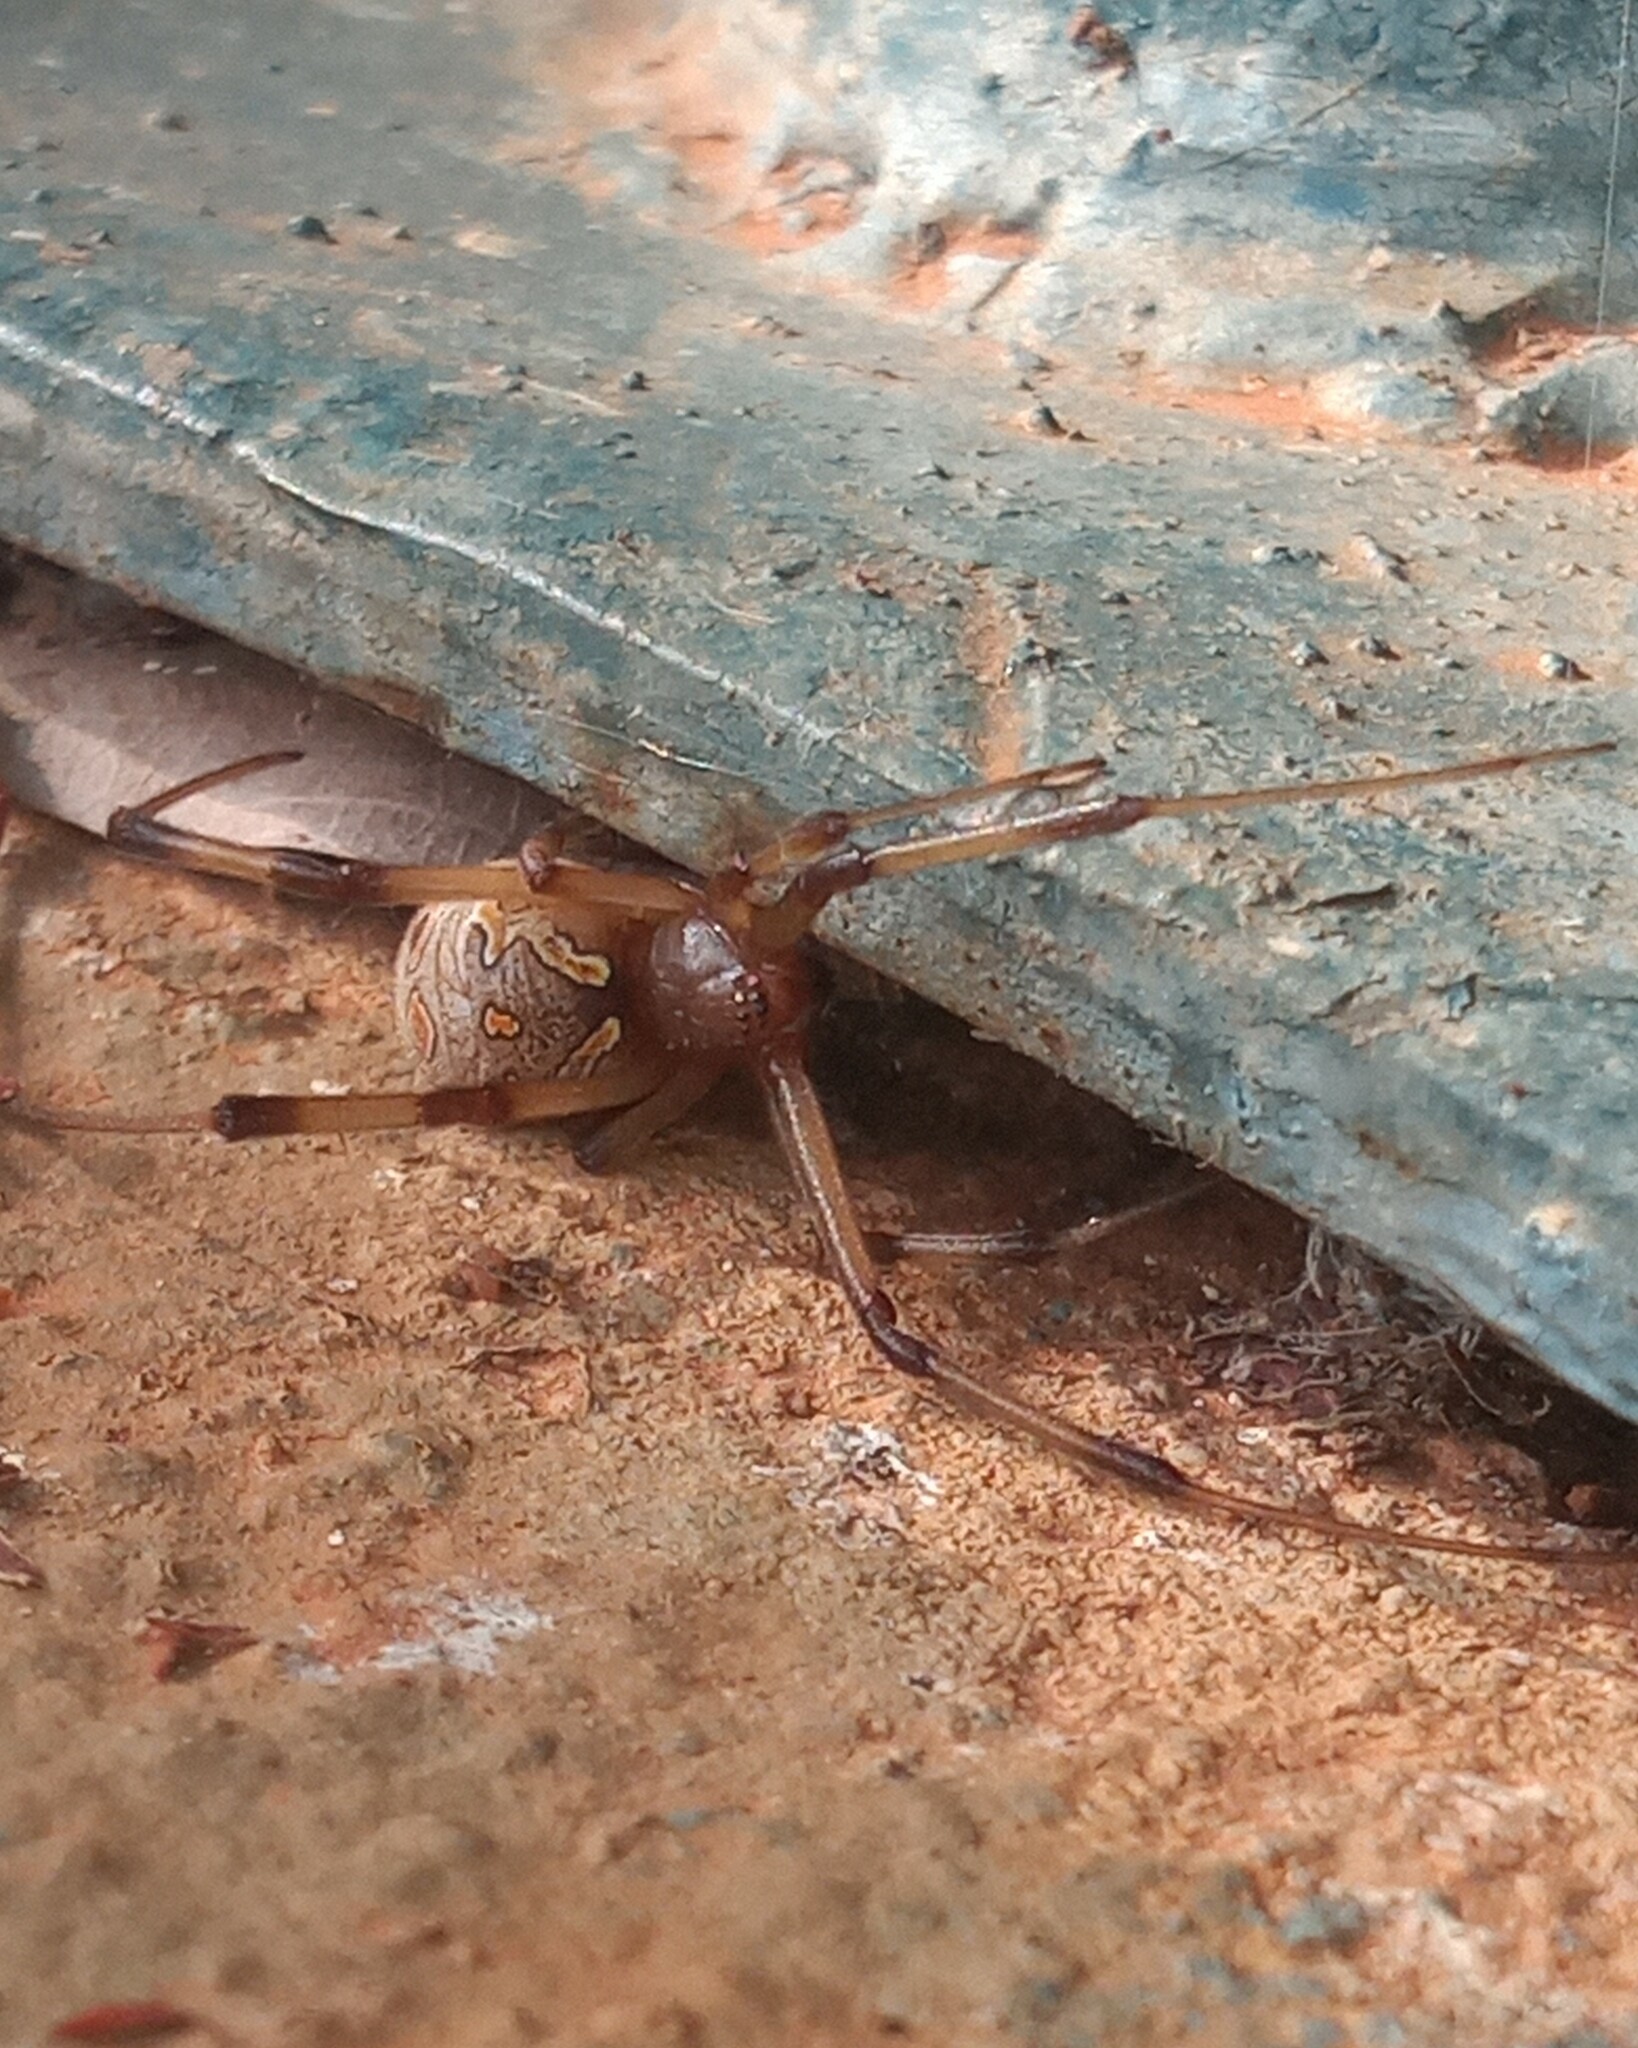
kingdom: Animalia
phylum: Arthropoda
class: Arachnida
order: Araneae
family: Theridiidae
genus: Latrodectus
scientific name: Latrodectus geometricus
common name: Brown widow spider
